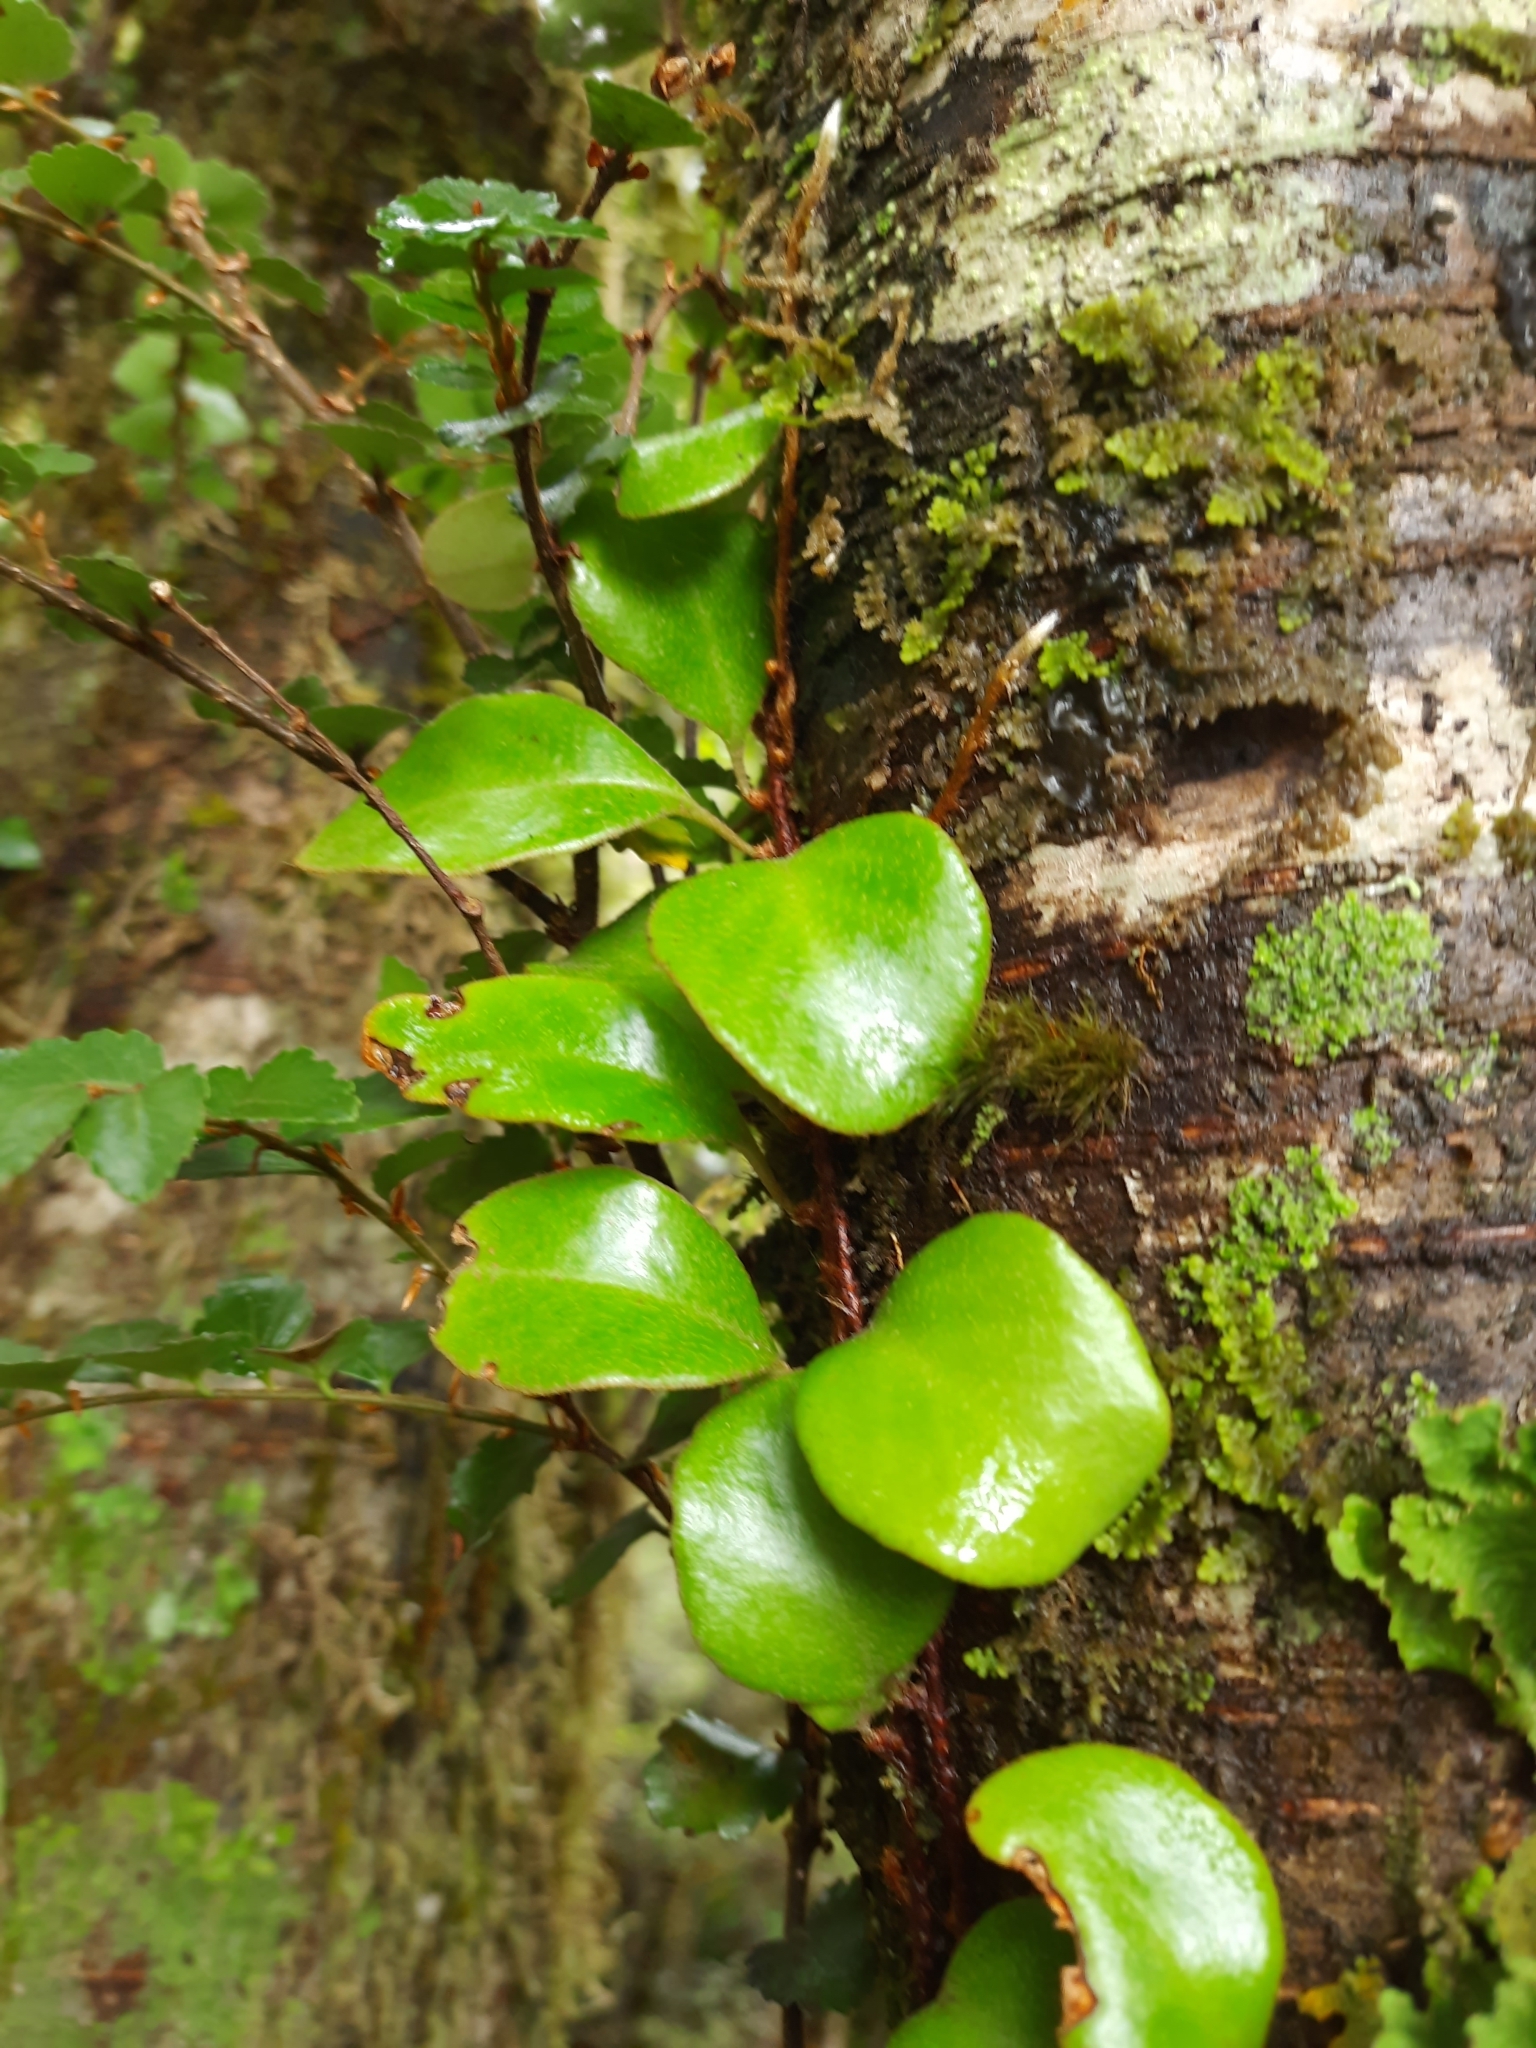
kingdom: Plantae
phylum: Tracheophyta
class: Polypodiopsida
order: Polypodiales
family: Polypodiaceae
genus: Pyrrosia
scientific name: Pyrrosia eleagnifolia
